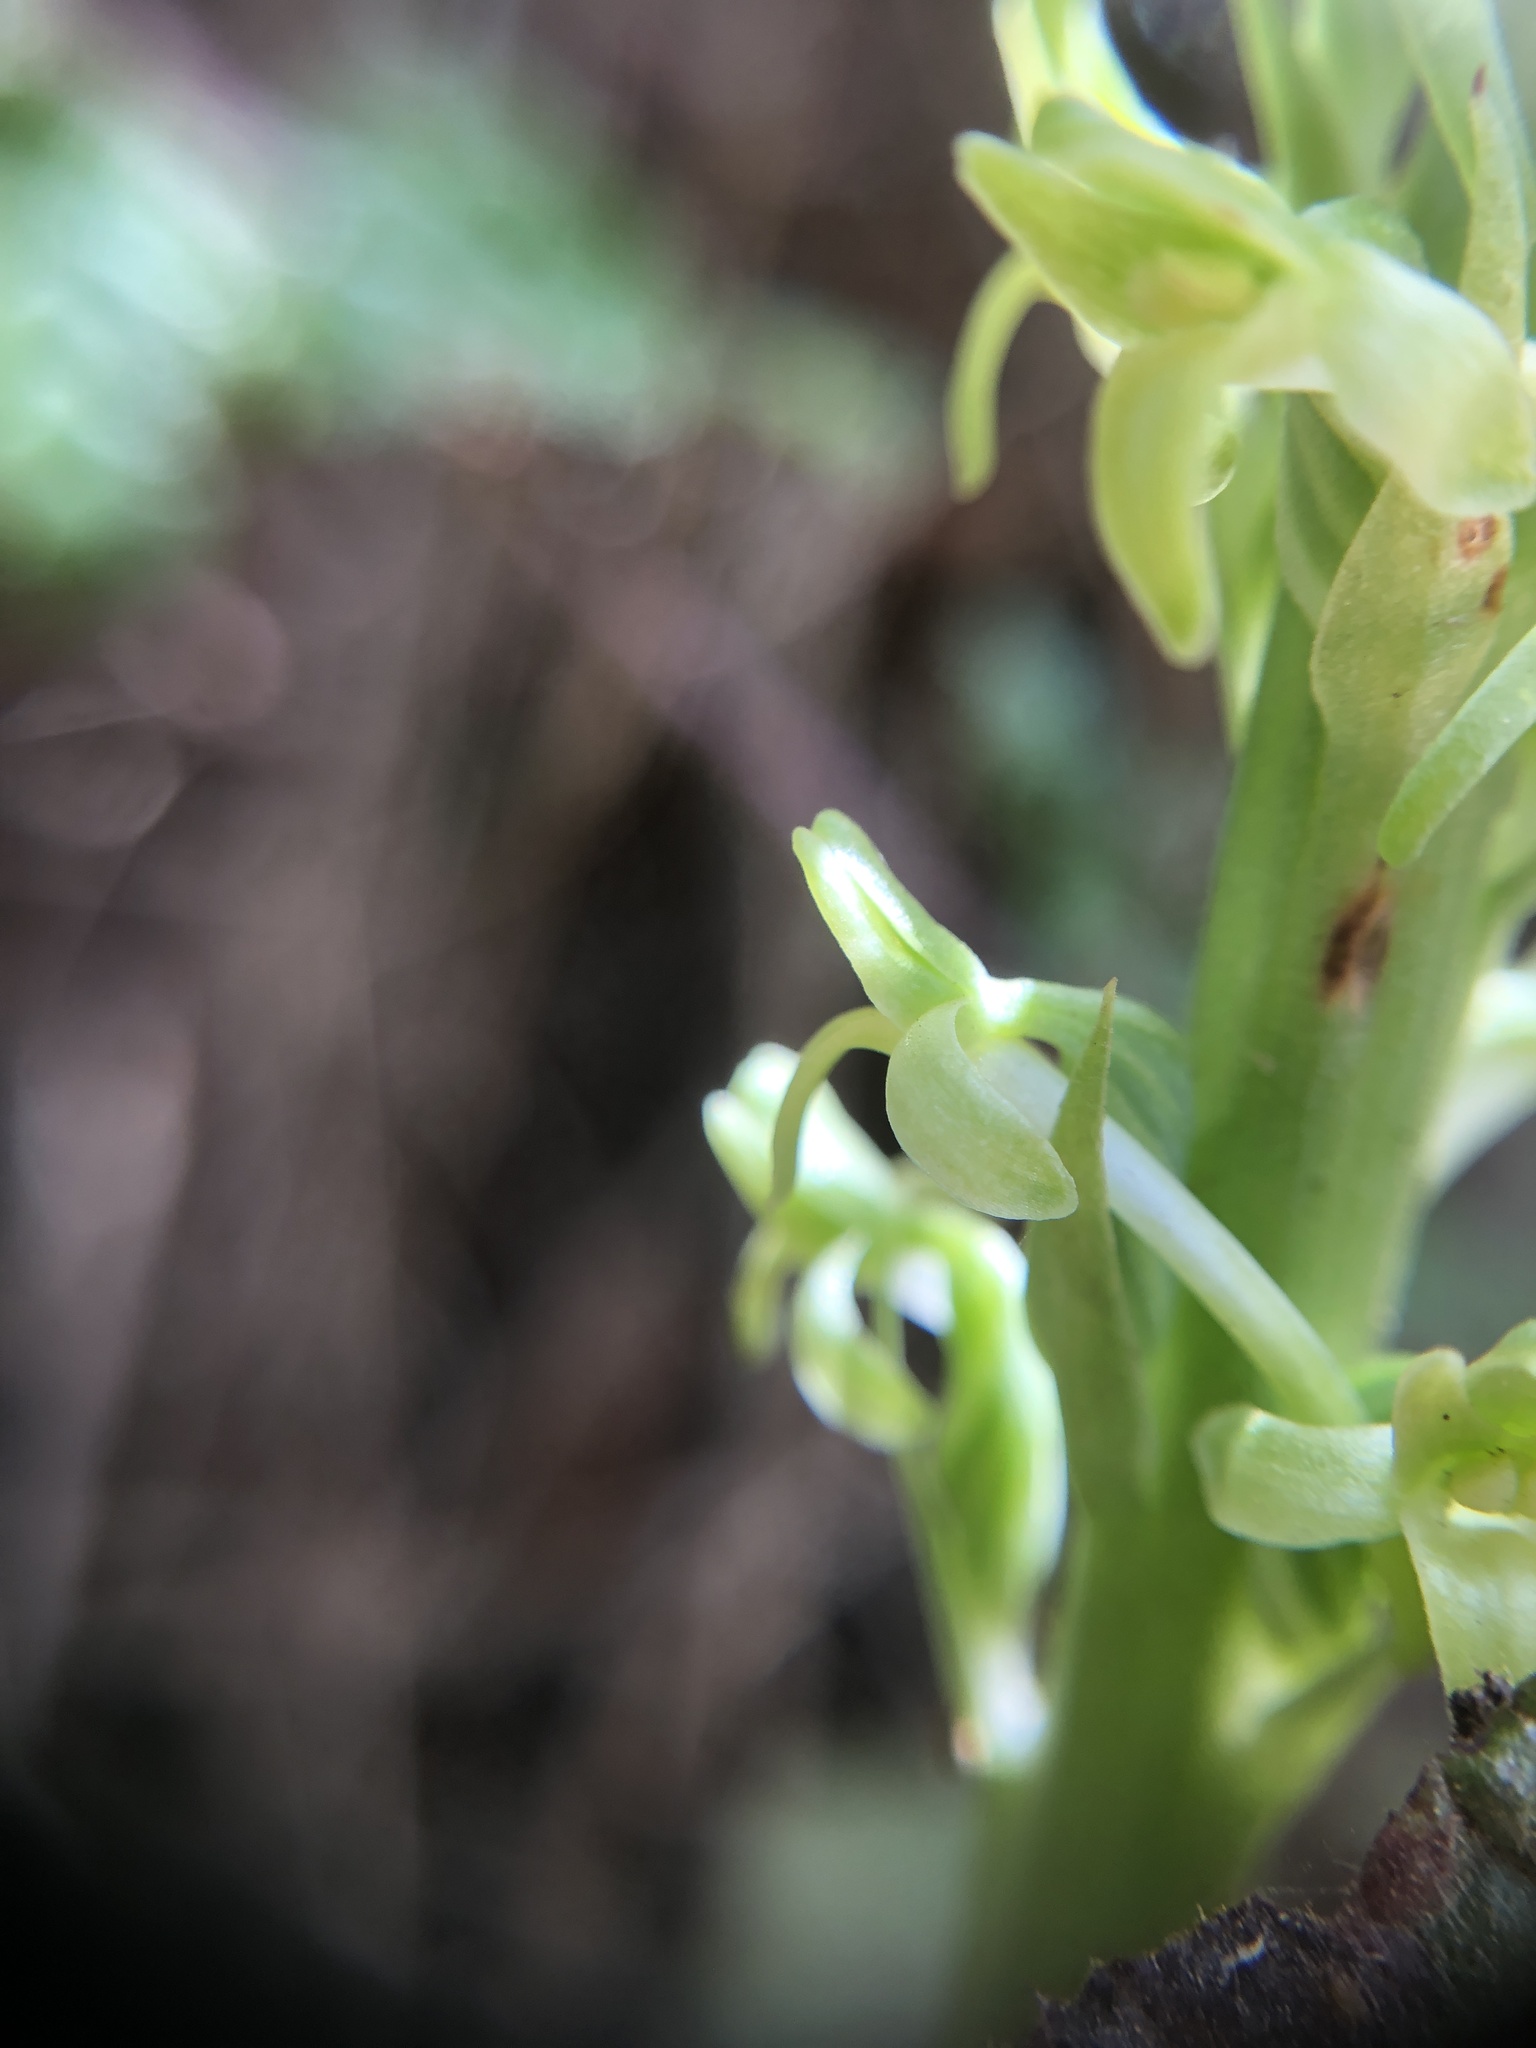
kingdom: Plantae
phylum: Tracheophyta
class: Liliopsida
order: Asparagales
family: Orchidaceae
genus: Platanthera
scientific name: Platanthera elongata
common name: Dense-flowered rein orchid
